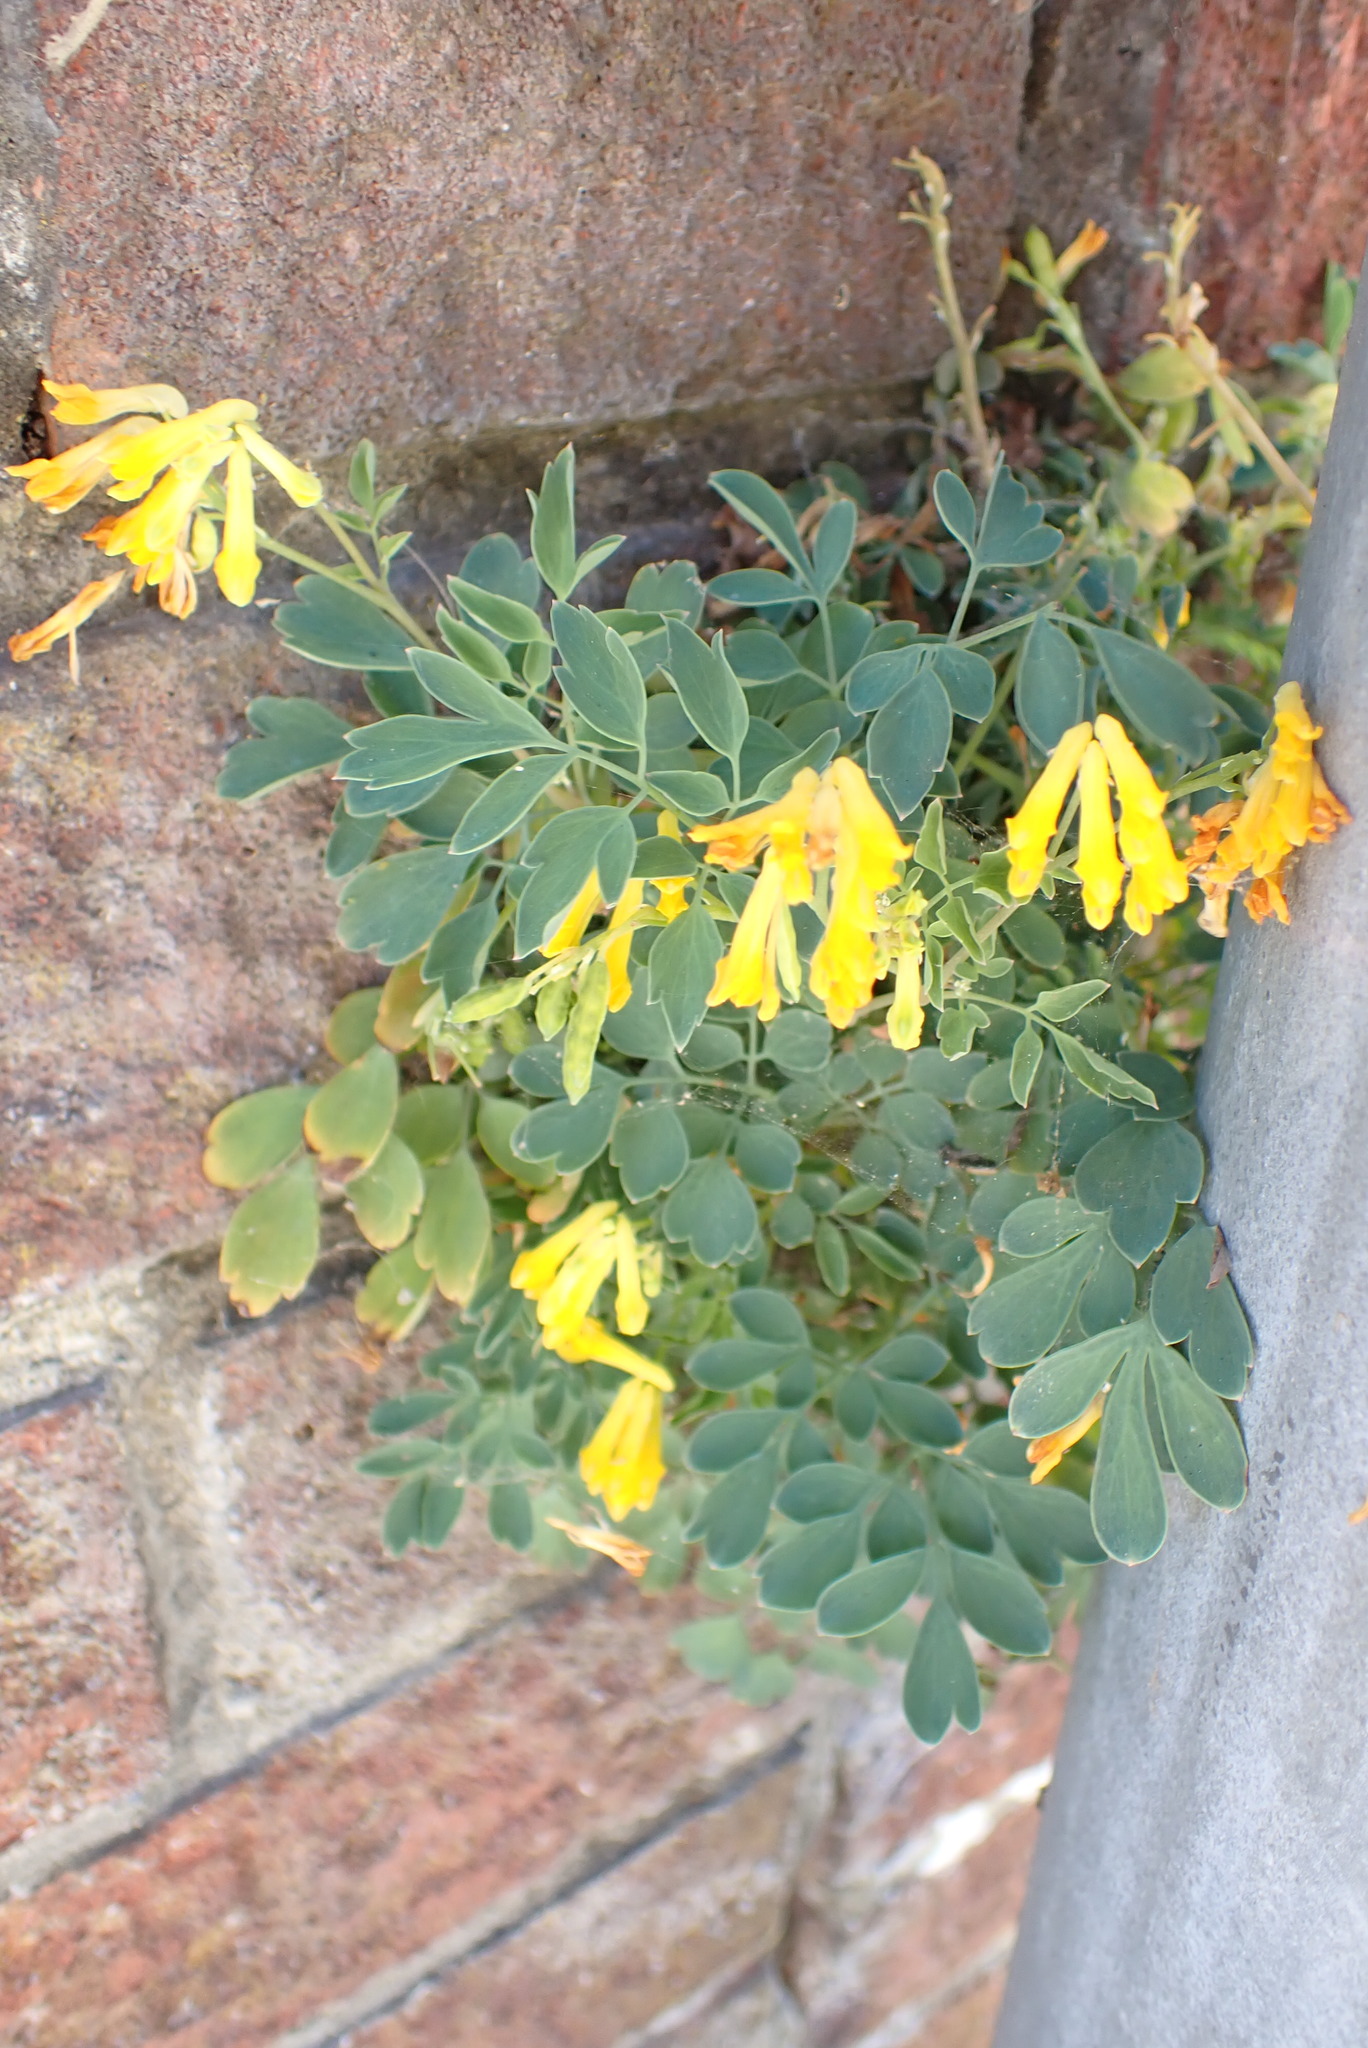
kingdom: Plantae
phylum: Tracheophyta
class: Magnoliopsida
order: Ranunculales
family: Papaveraceae
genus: Pseudofumaria
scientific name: Pseudofumaria lutea
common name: Yellow corydalis
